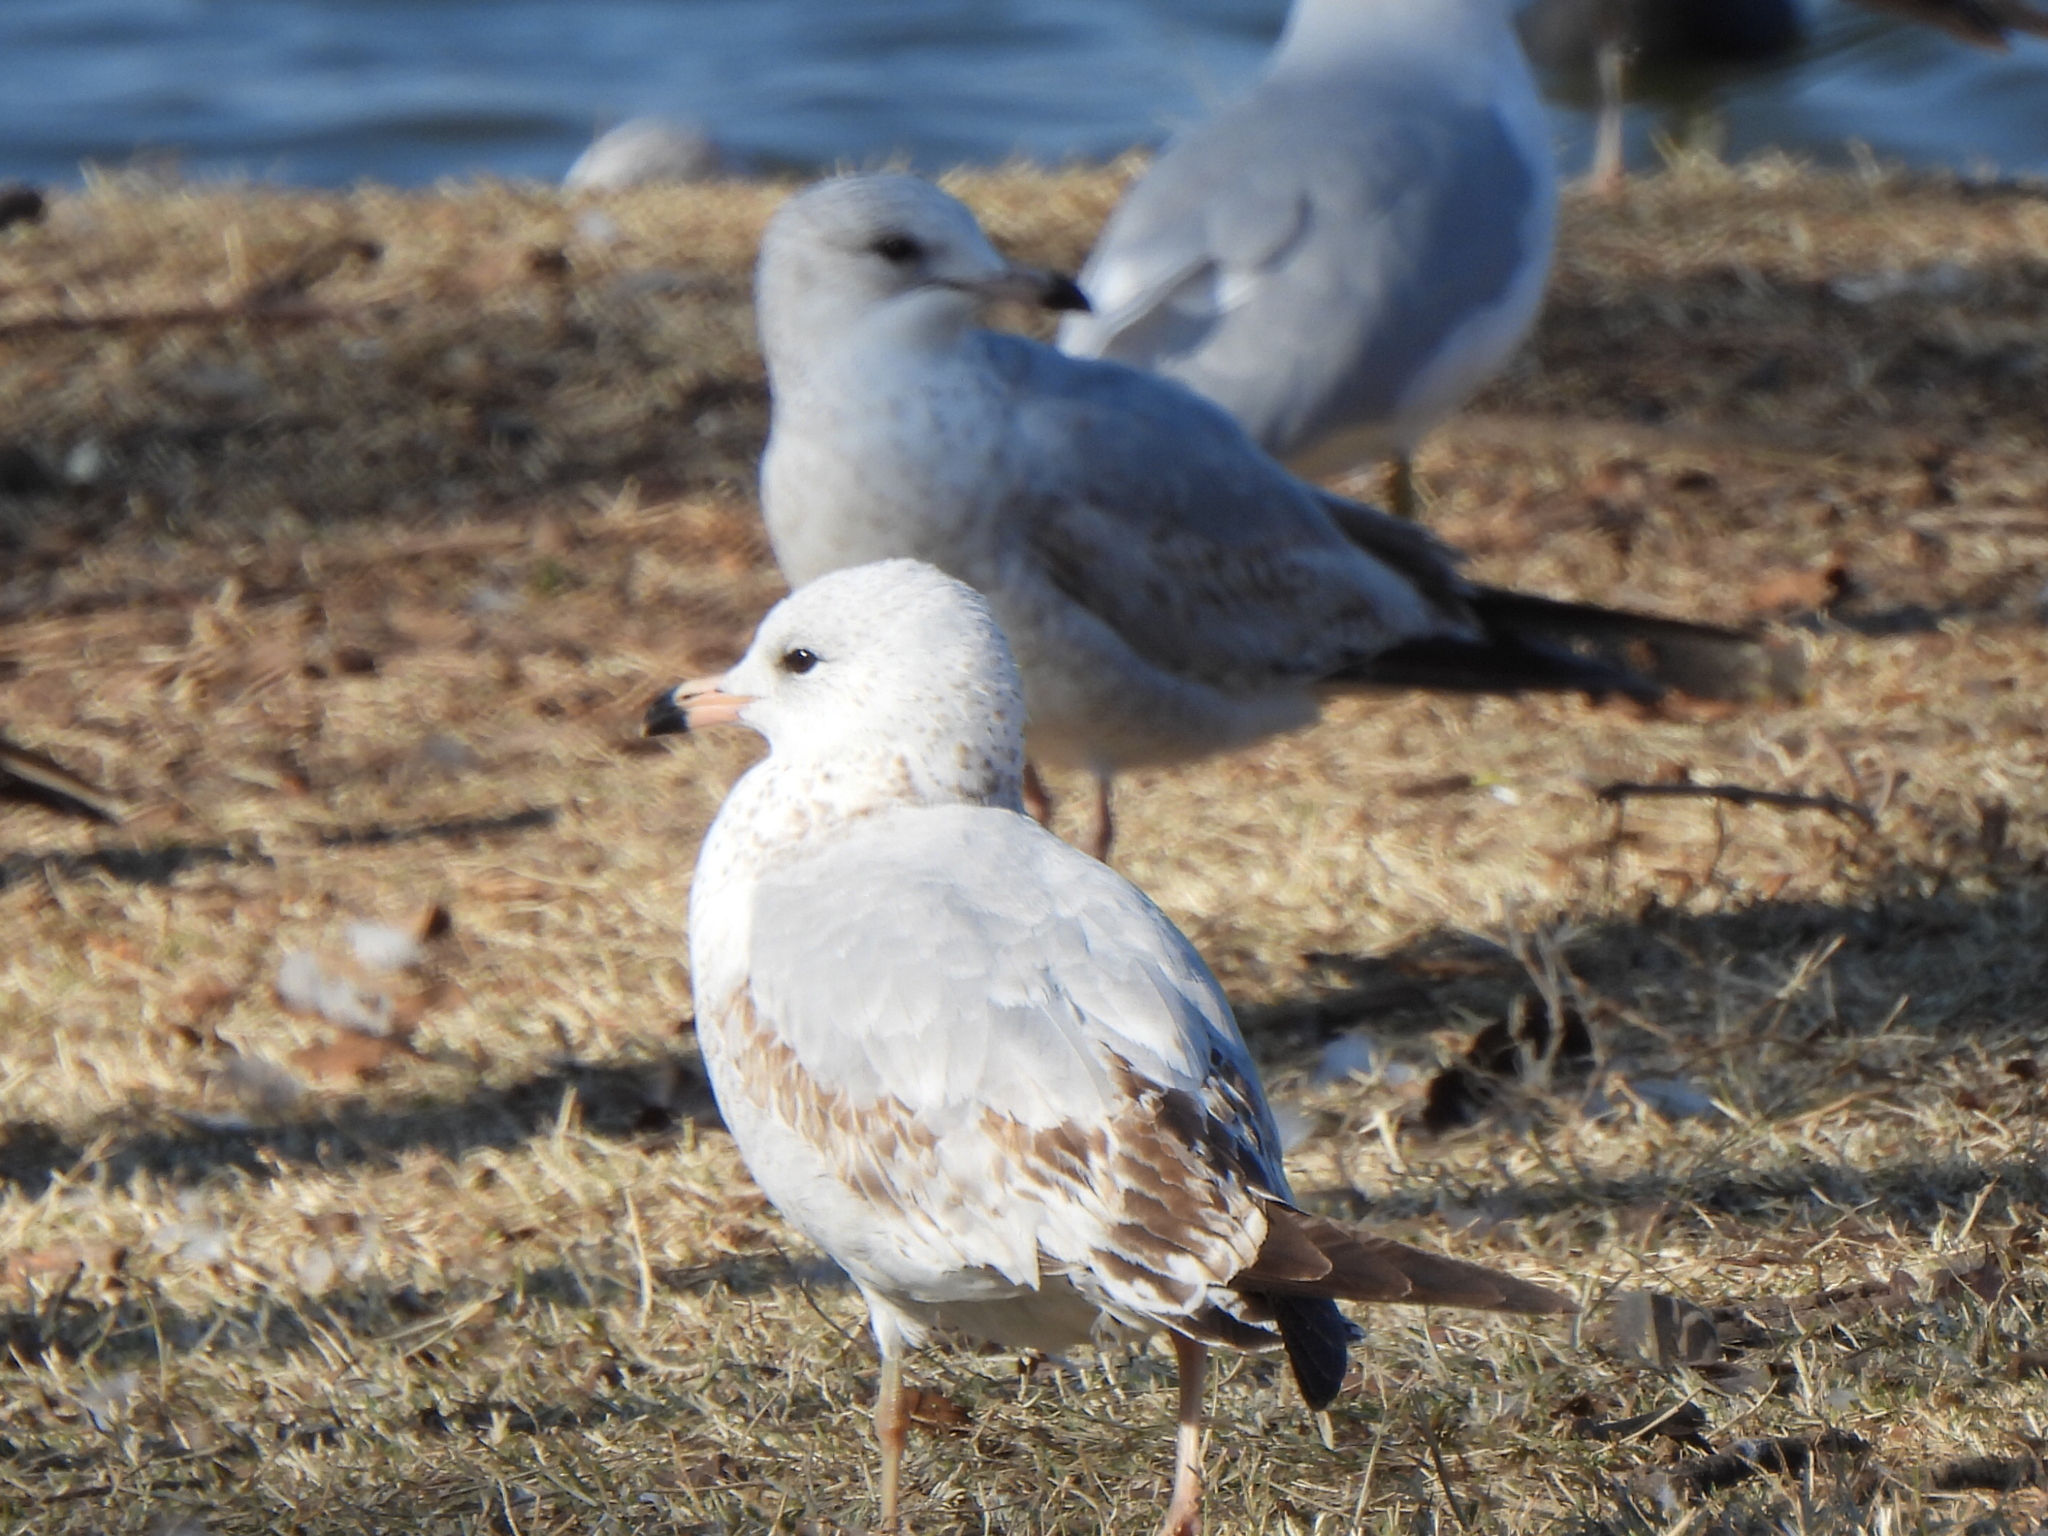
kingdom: Animalia
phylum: Chordata
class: Aves
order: Charadriiformes
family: Laridae
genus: Larus
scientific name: Larus delawarensis
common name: Ring-billed gull
